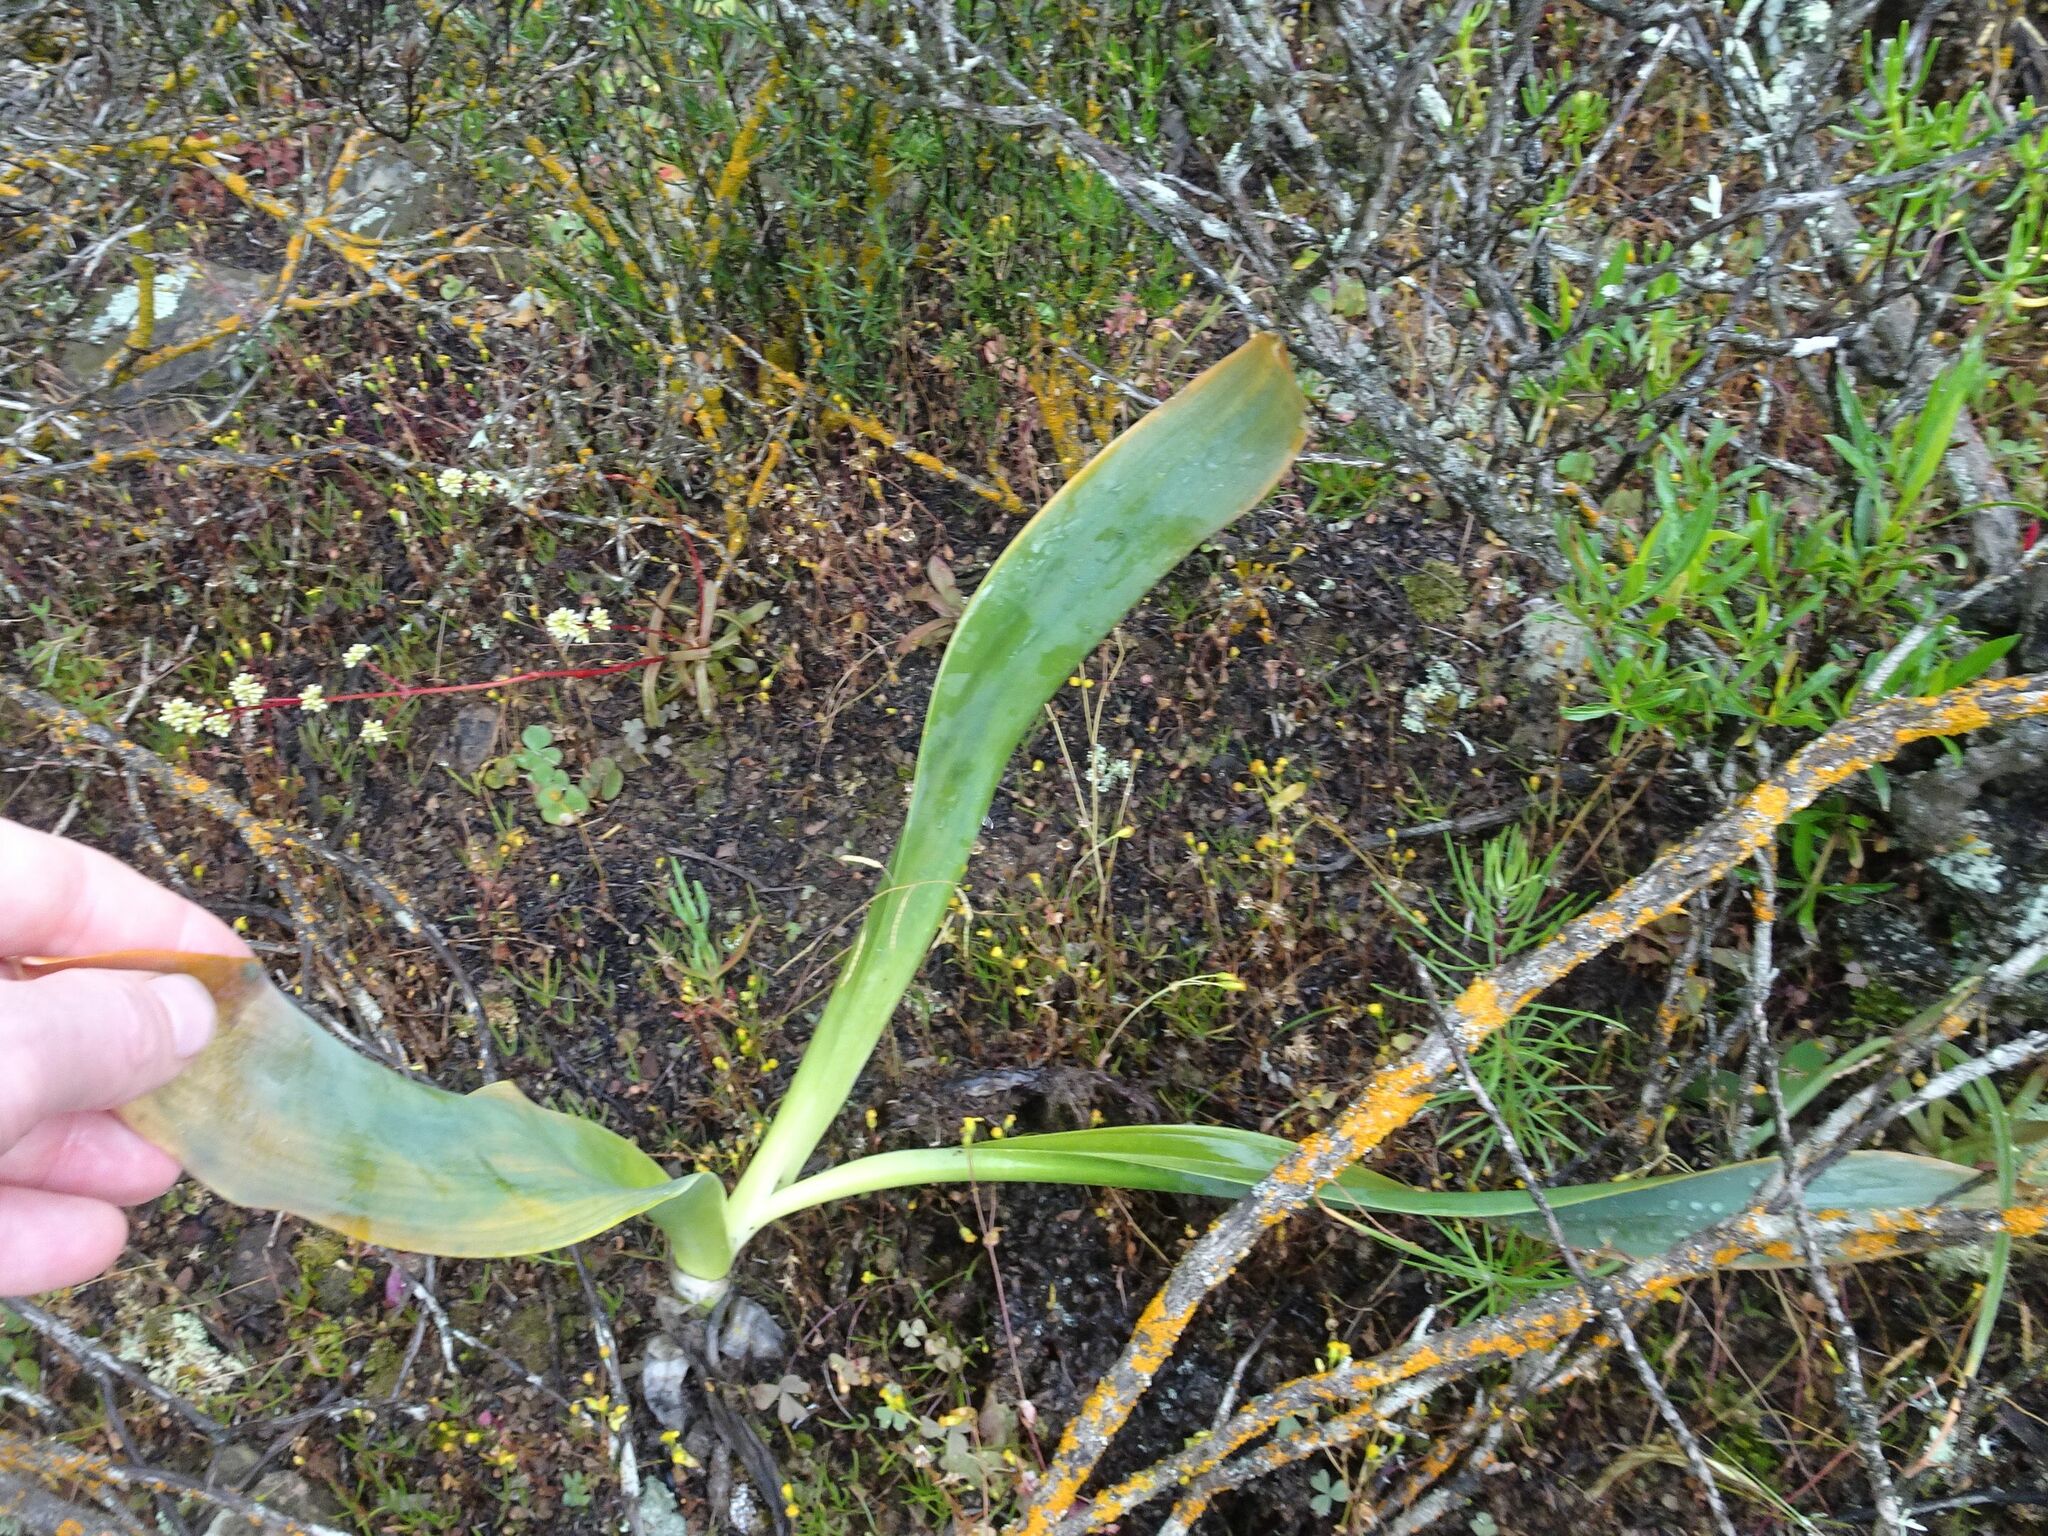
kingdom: Plantae
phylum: Tracheophyta
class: Liliopsida
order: Asparagales
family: Asparagaceae
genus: Drimia
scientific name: Drimia capensis
